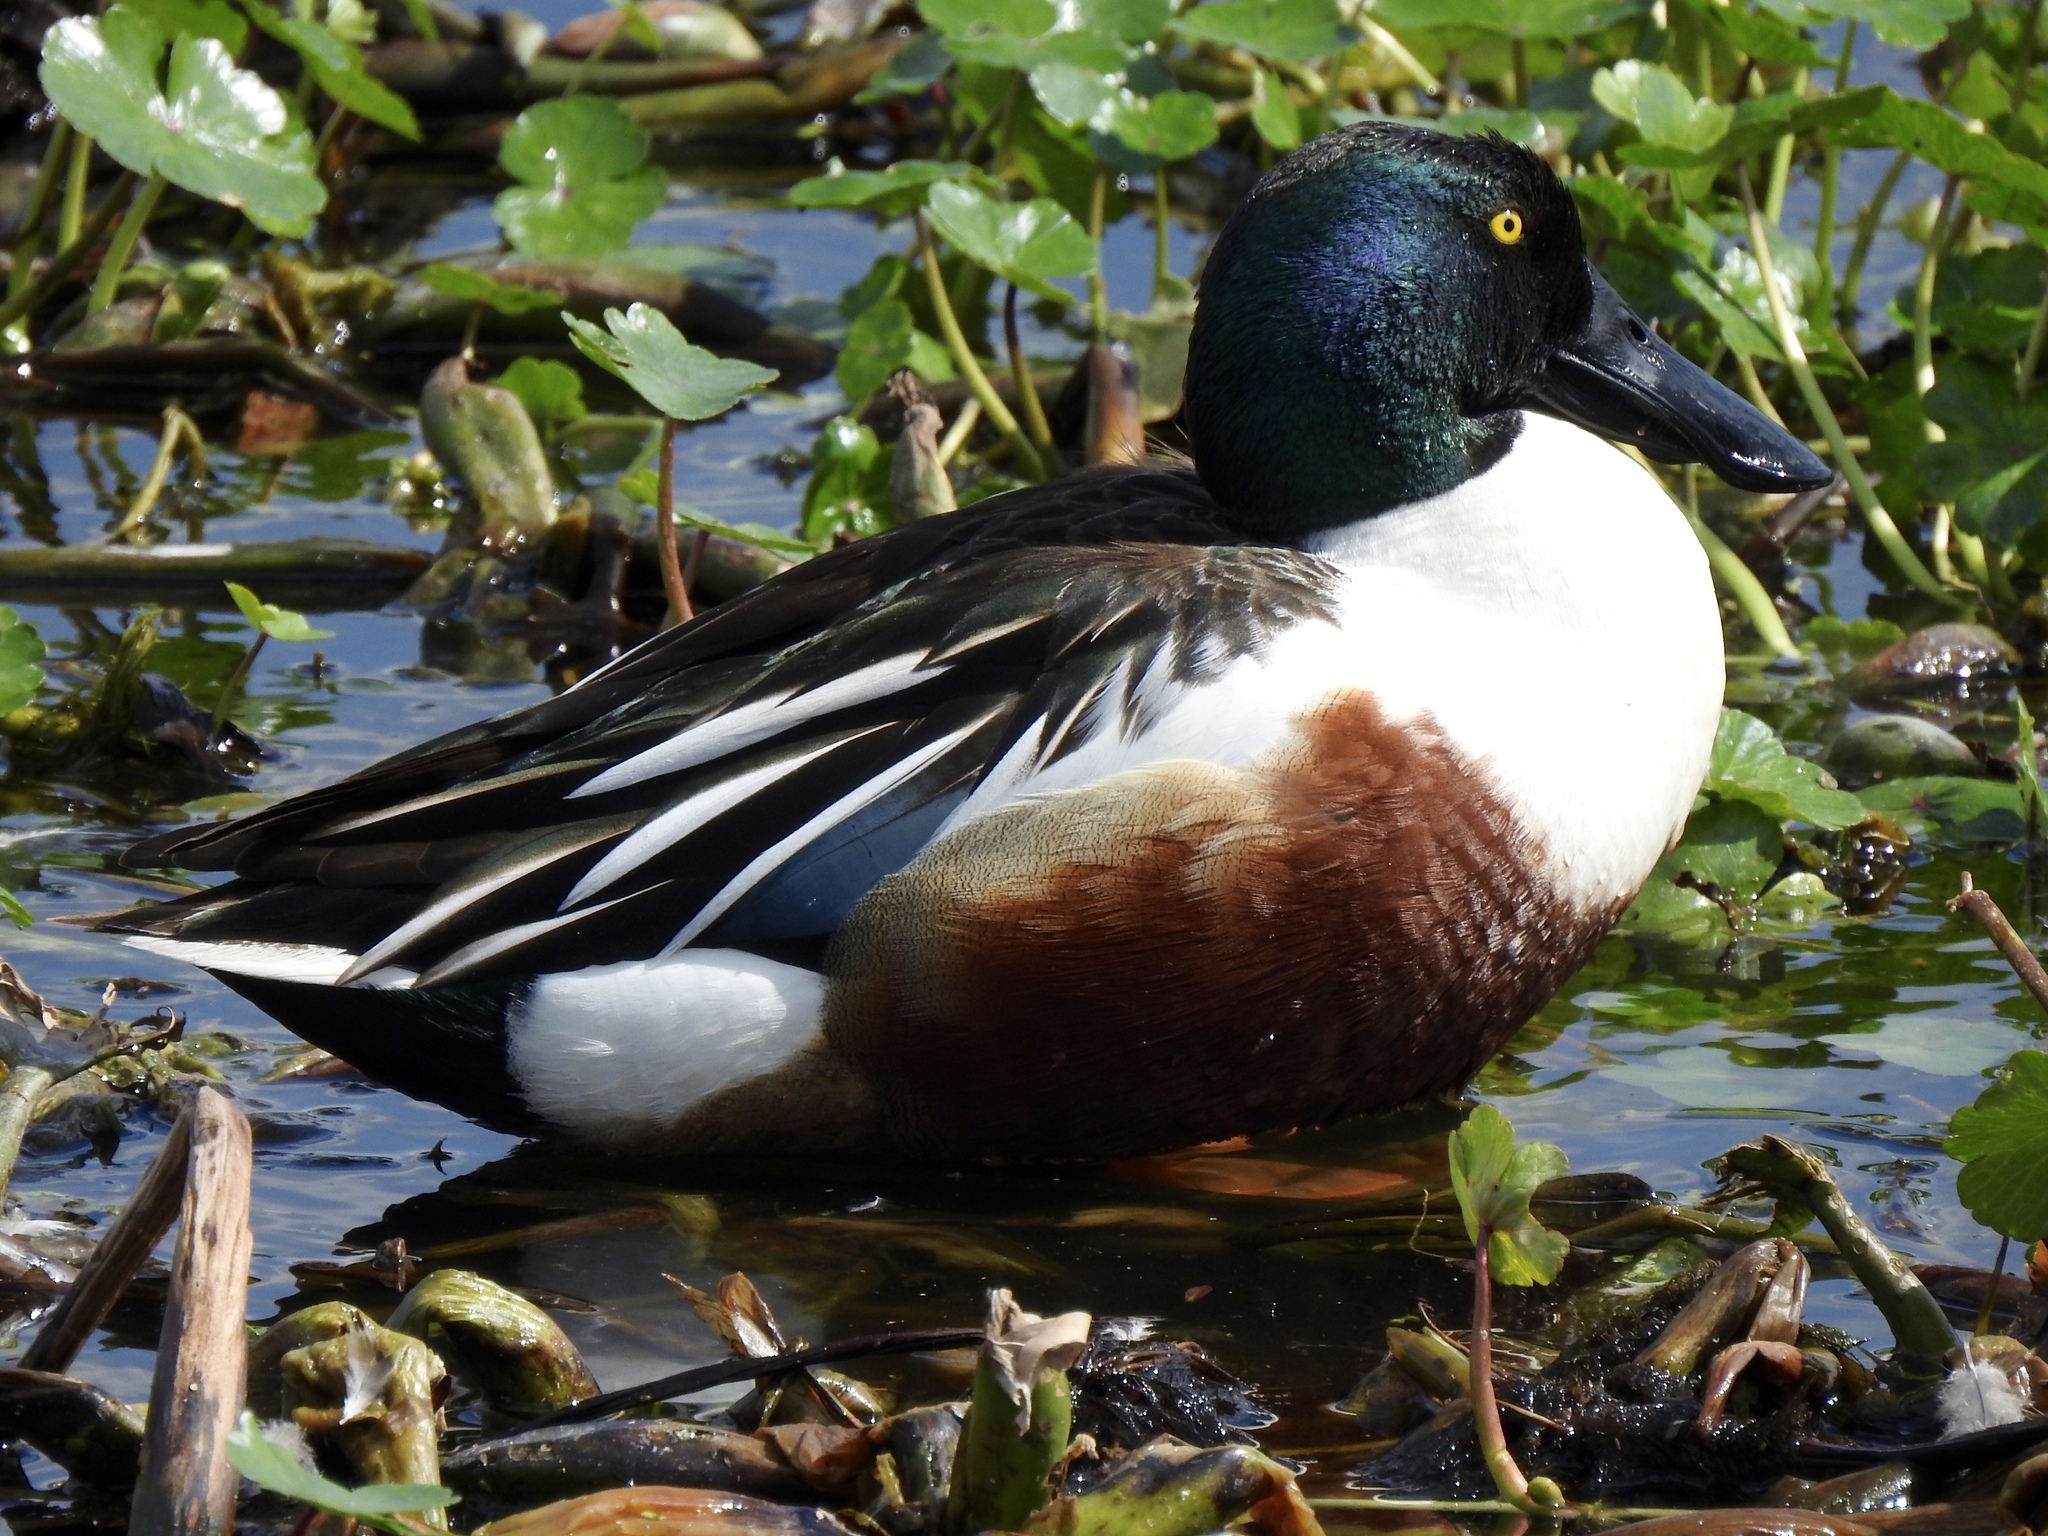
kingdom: Animalia
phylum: Chordata
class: Aves
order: Anseriformes
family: Anatidae
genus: Spatula
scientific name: Spatula clypeata
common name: Northern shoveler
